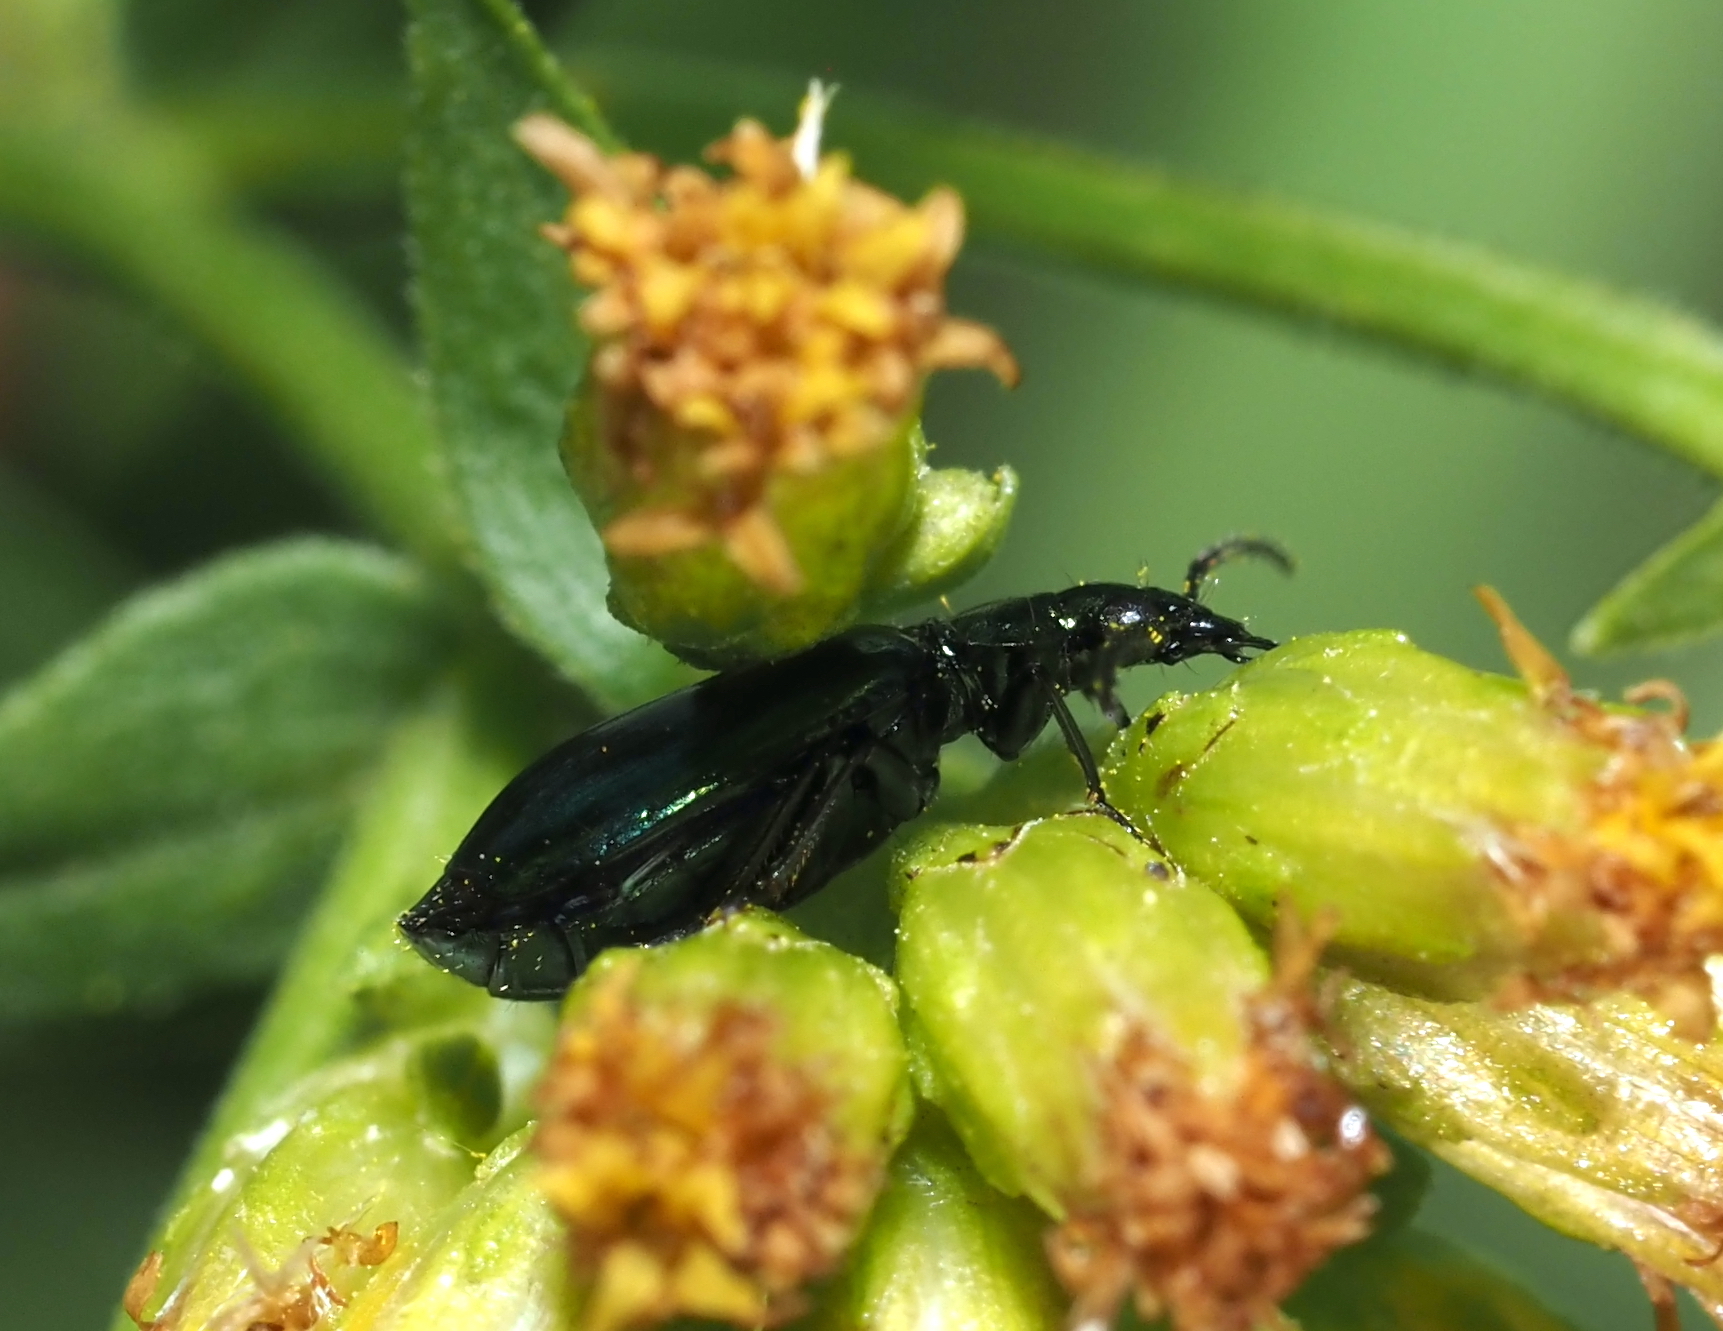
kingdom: Animalia
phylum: Arthropoda
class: Insecta
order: Coleoptera
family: Carabidae
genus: Lebia
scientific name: Lebia viridis
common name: Flower lebia beetle
